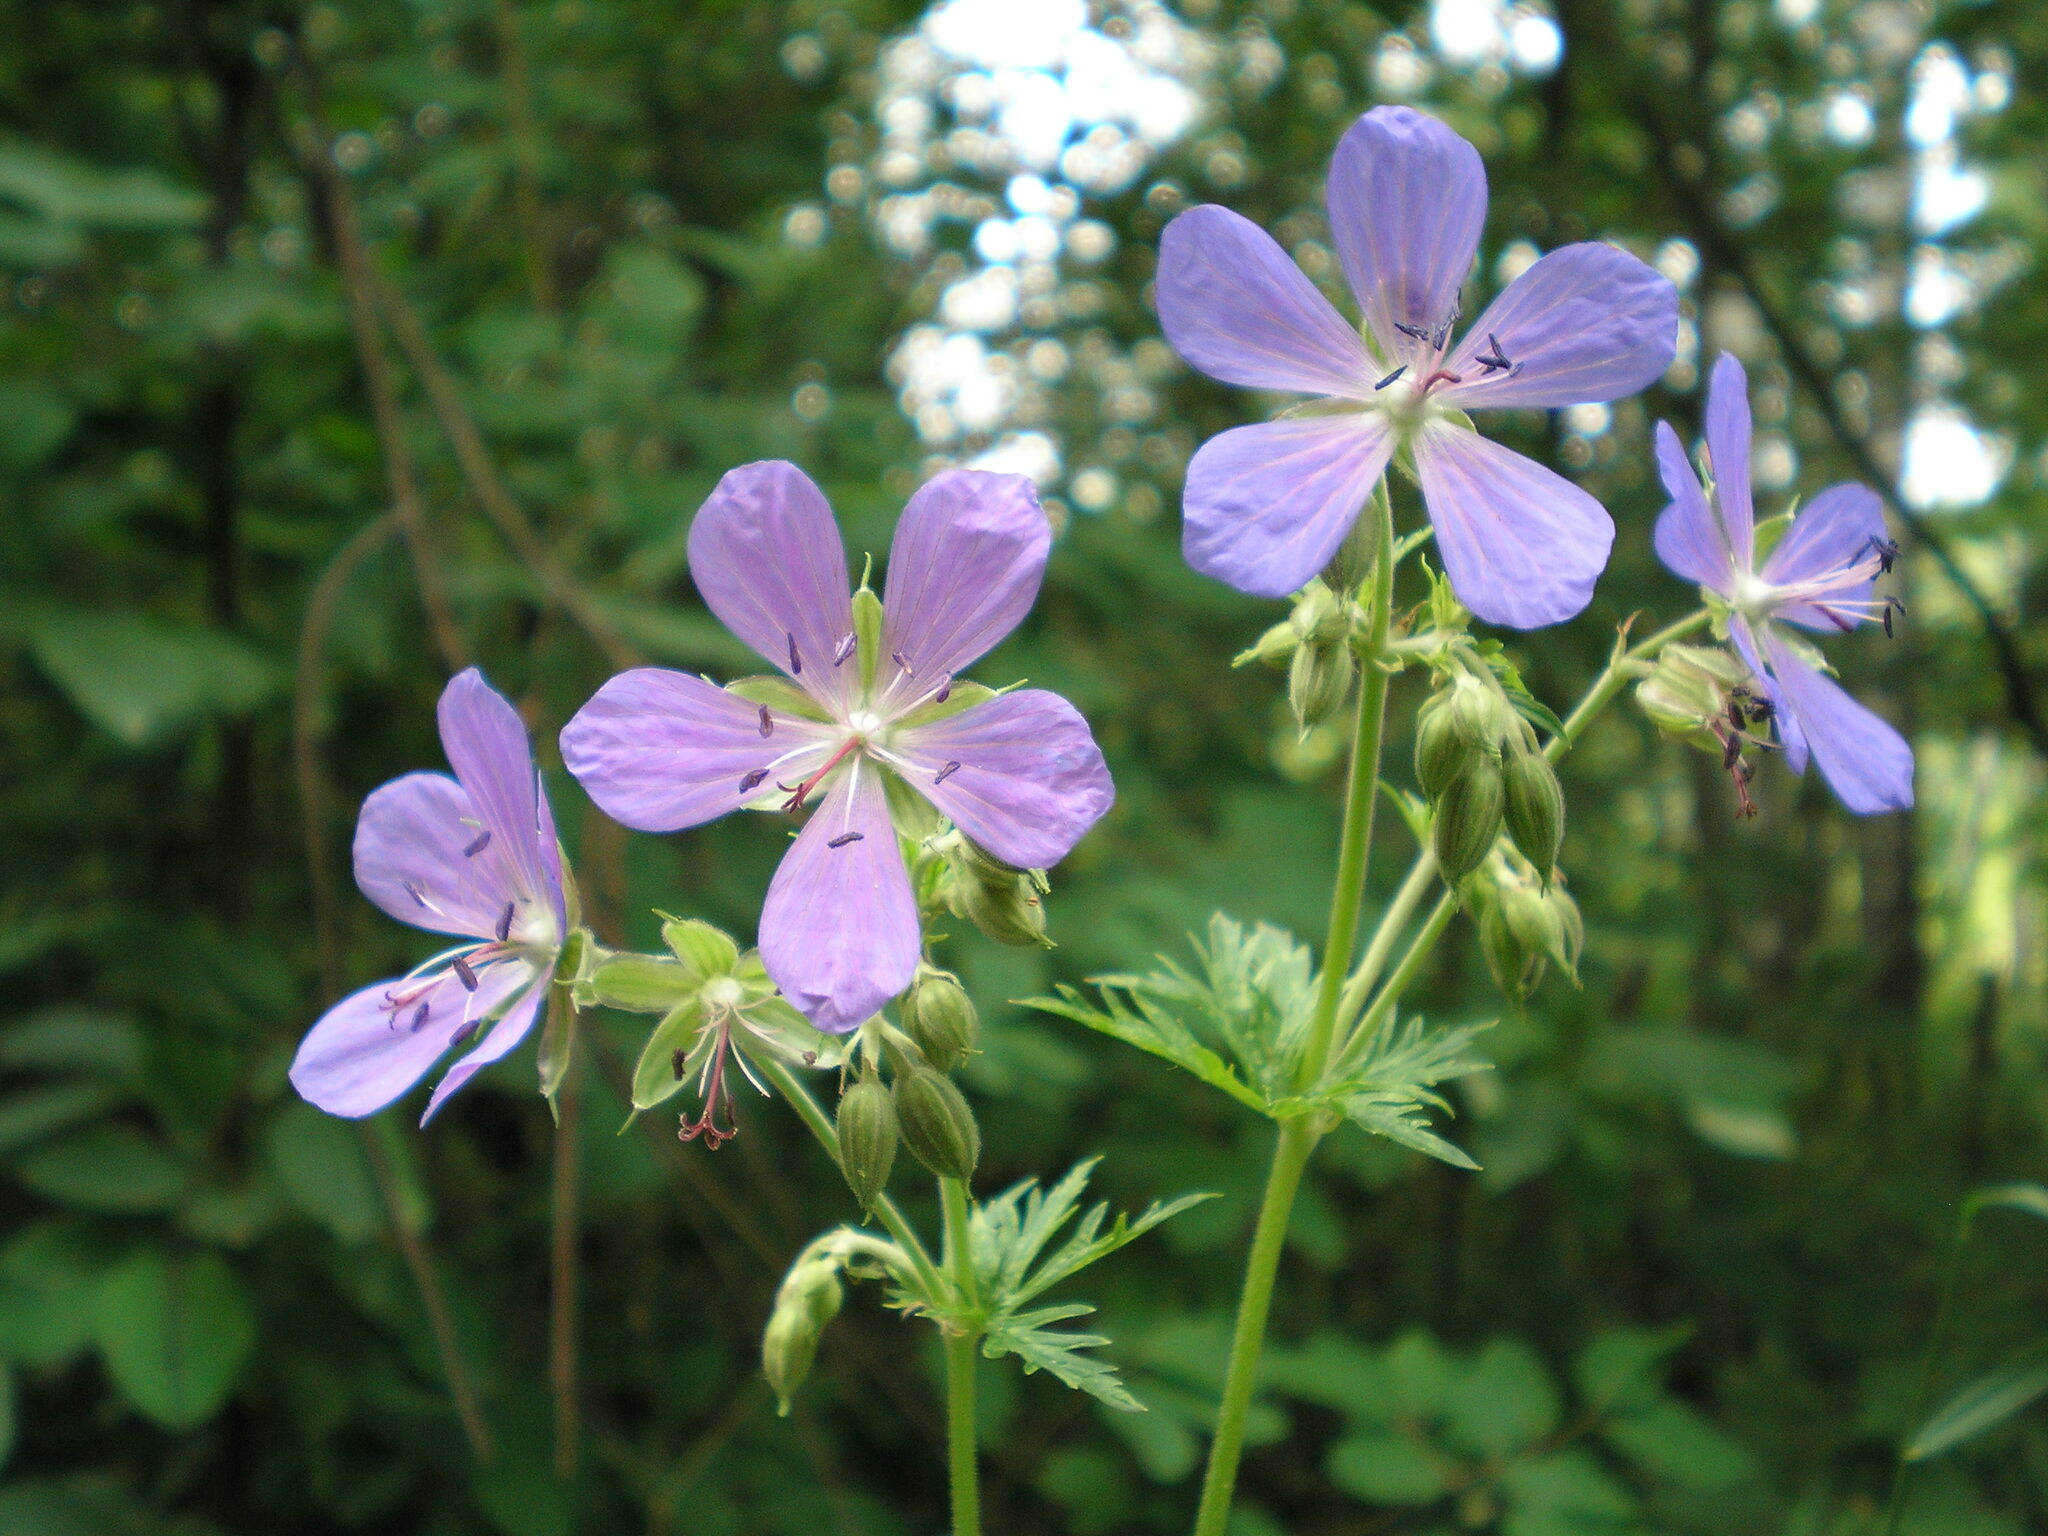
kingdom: Plantae
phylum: Tracheophyta
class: Magnoliopsida
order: Geraniales
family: Geraniaceae
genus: Geranium
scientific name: Geranium pratense
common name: Meadow crane's-bill
